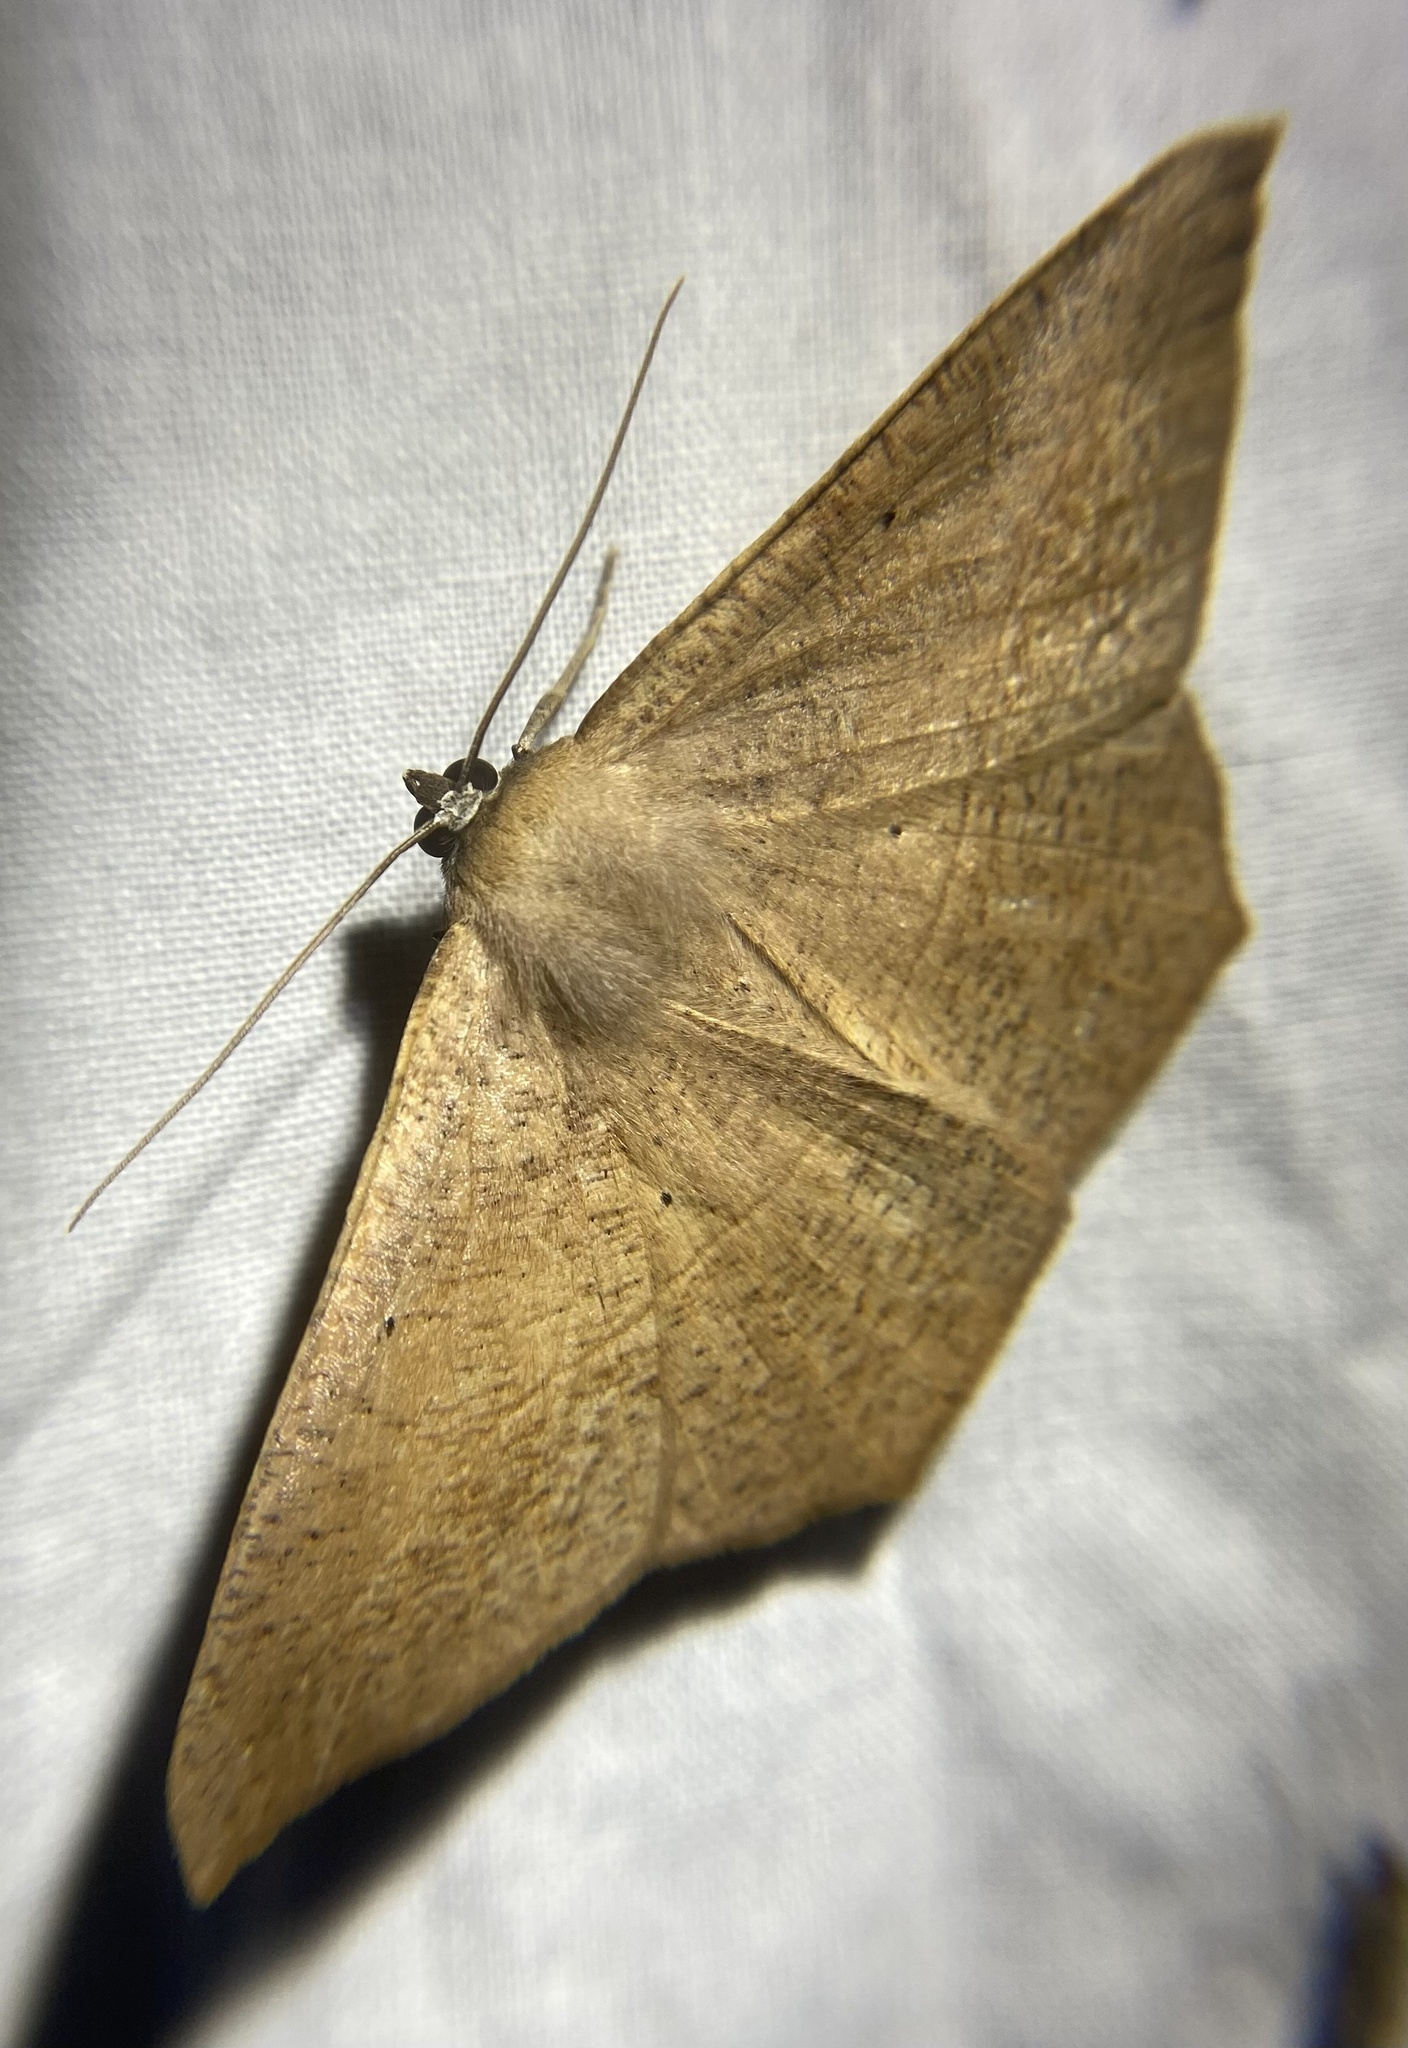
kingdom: Animalia
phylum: Arthropoda
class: Insecta
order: Lepidoptera
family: Geometridae
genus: Prochoerodes
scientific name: Prochoerodes lineola
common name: Large maple spanworm
